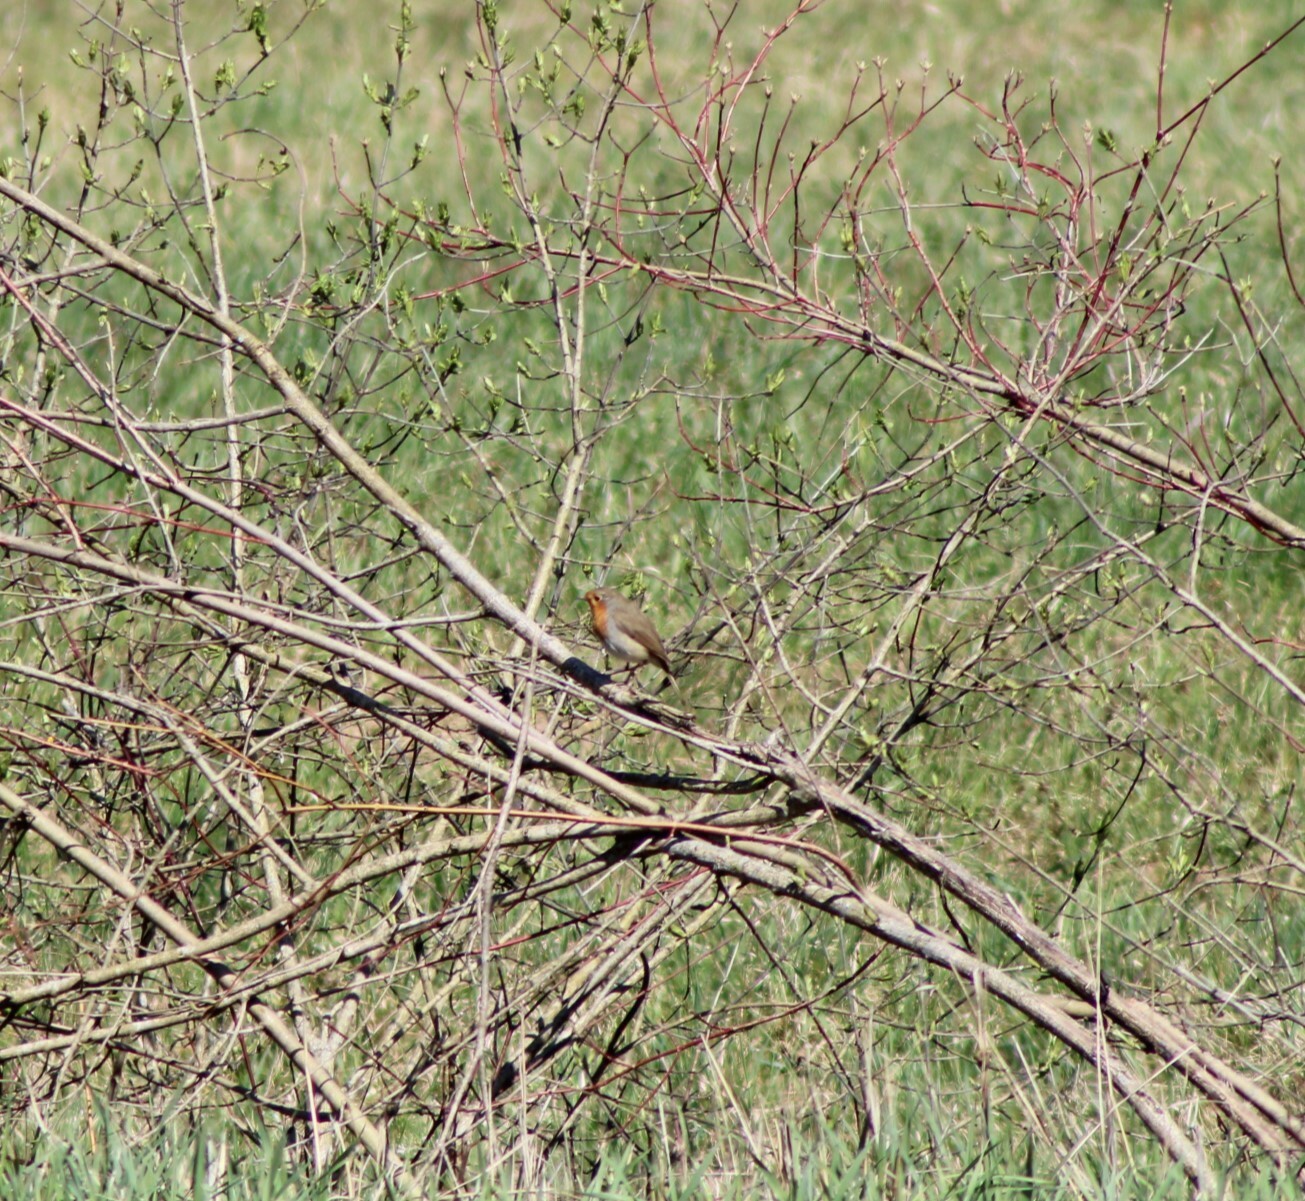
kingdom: Animalia
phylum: Chordata
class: Aves
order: Passeriformes
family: Muscicapidae
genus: Erithacus
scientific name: Erithacus rubecula
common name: European robin
